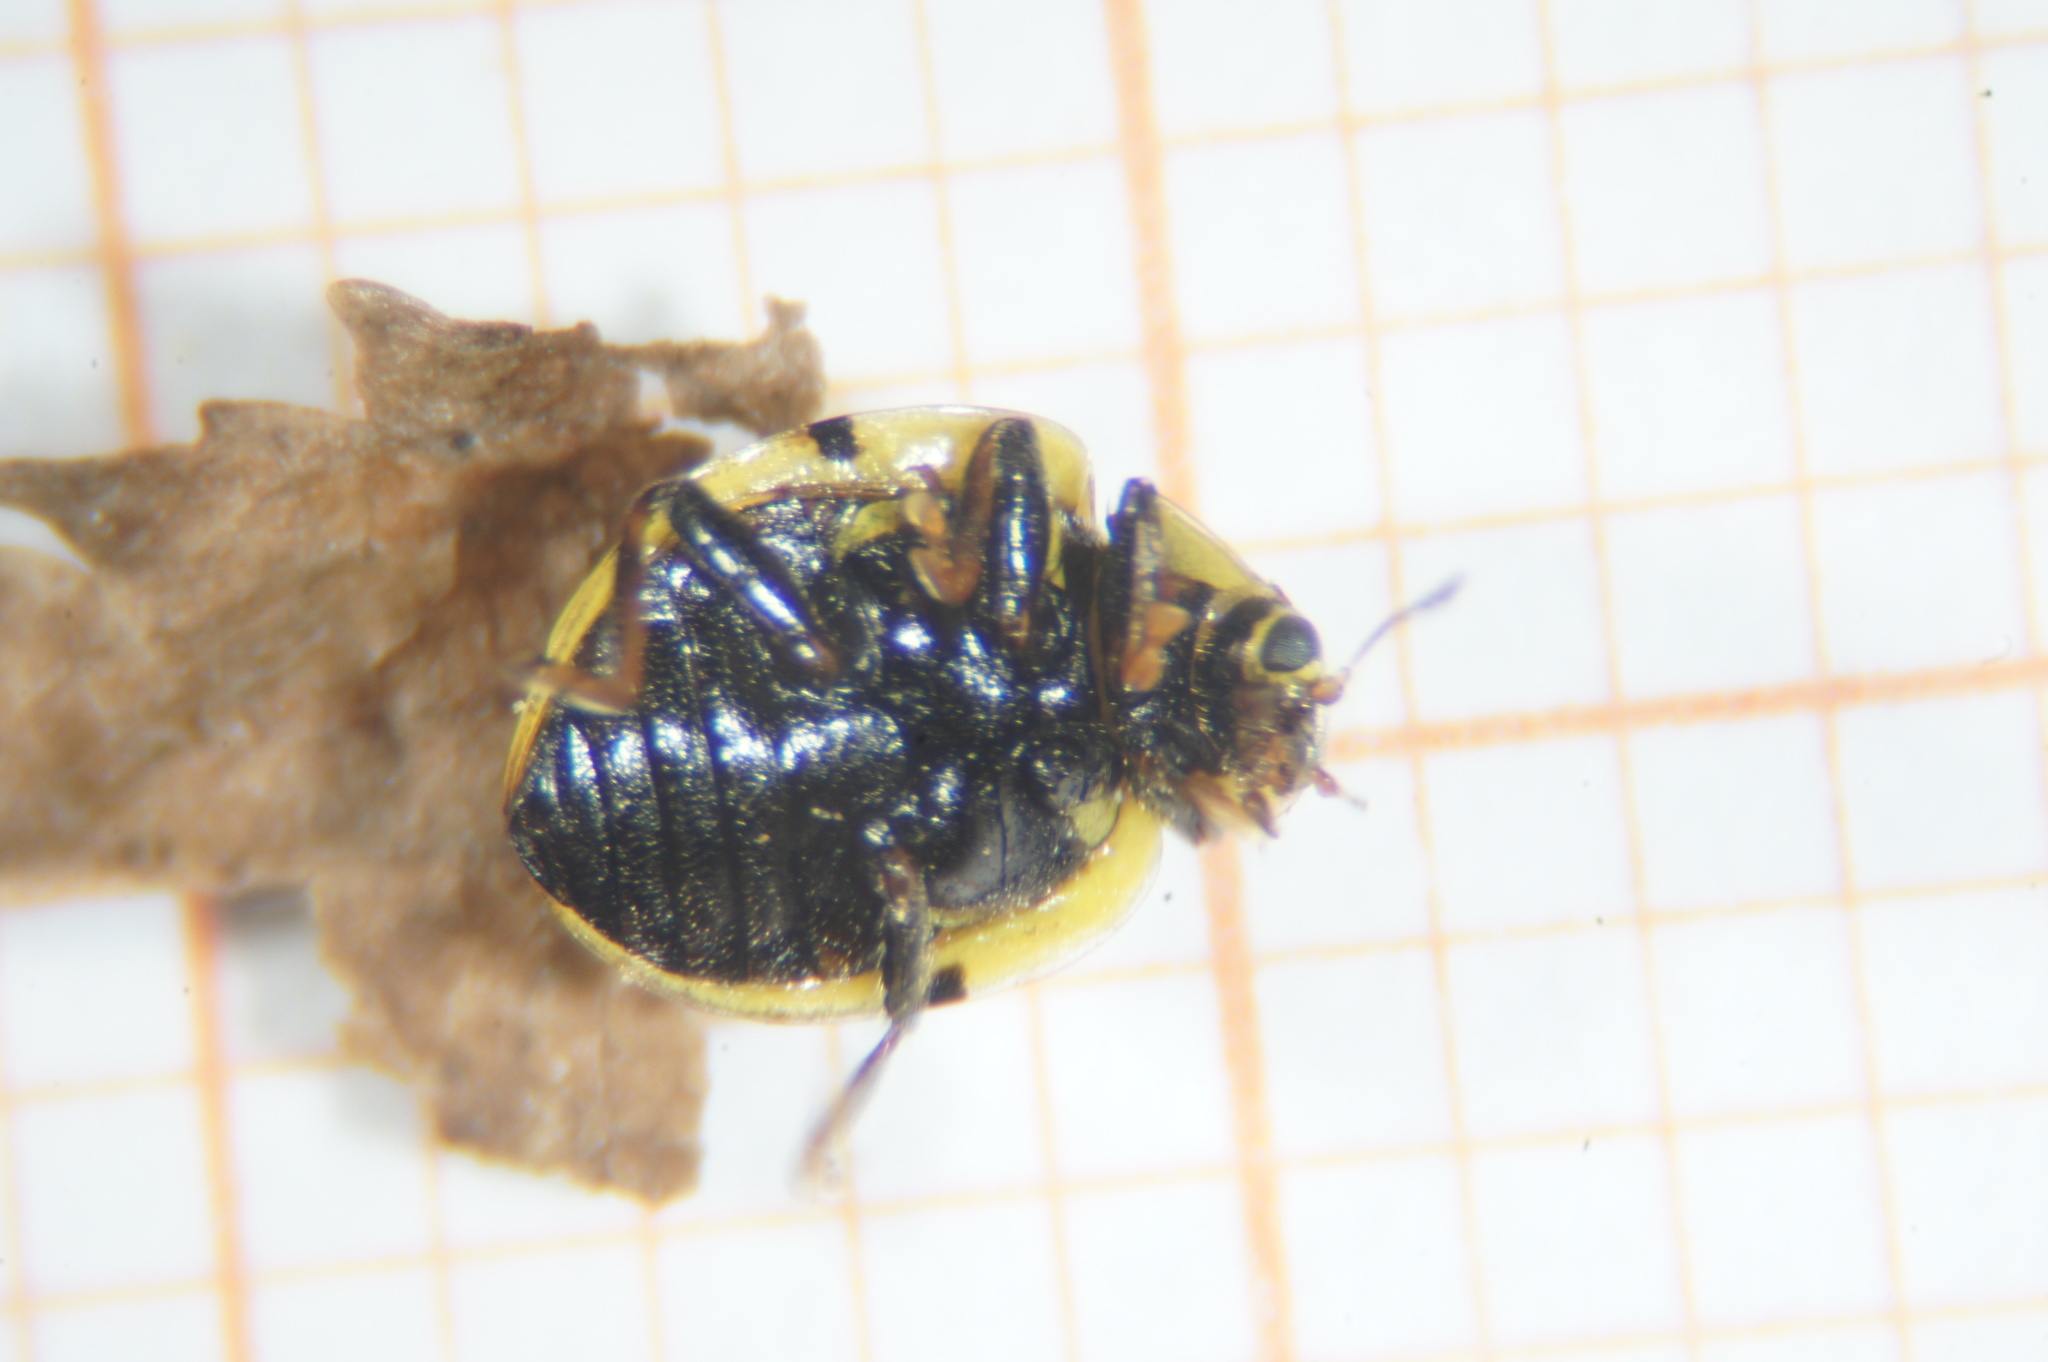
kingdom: Animalia
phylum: Arthropoda
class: Insecta
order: Coleoptera
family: Coccinellidae
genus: Psyllobora
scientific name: Psyllobora vigintiduopunctata
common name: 22-spot ladybird
